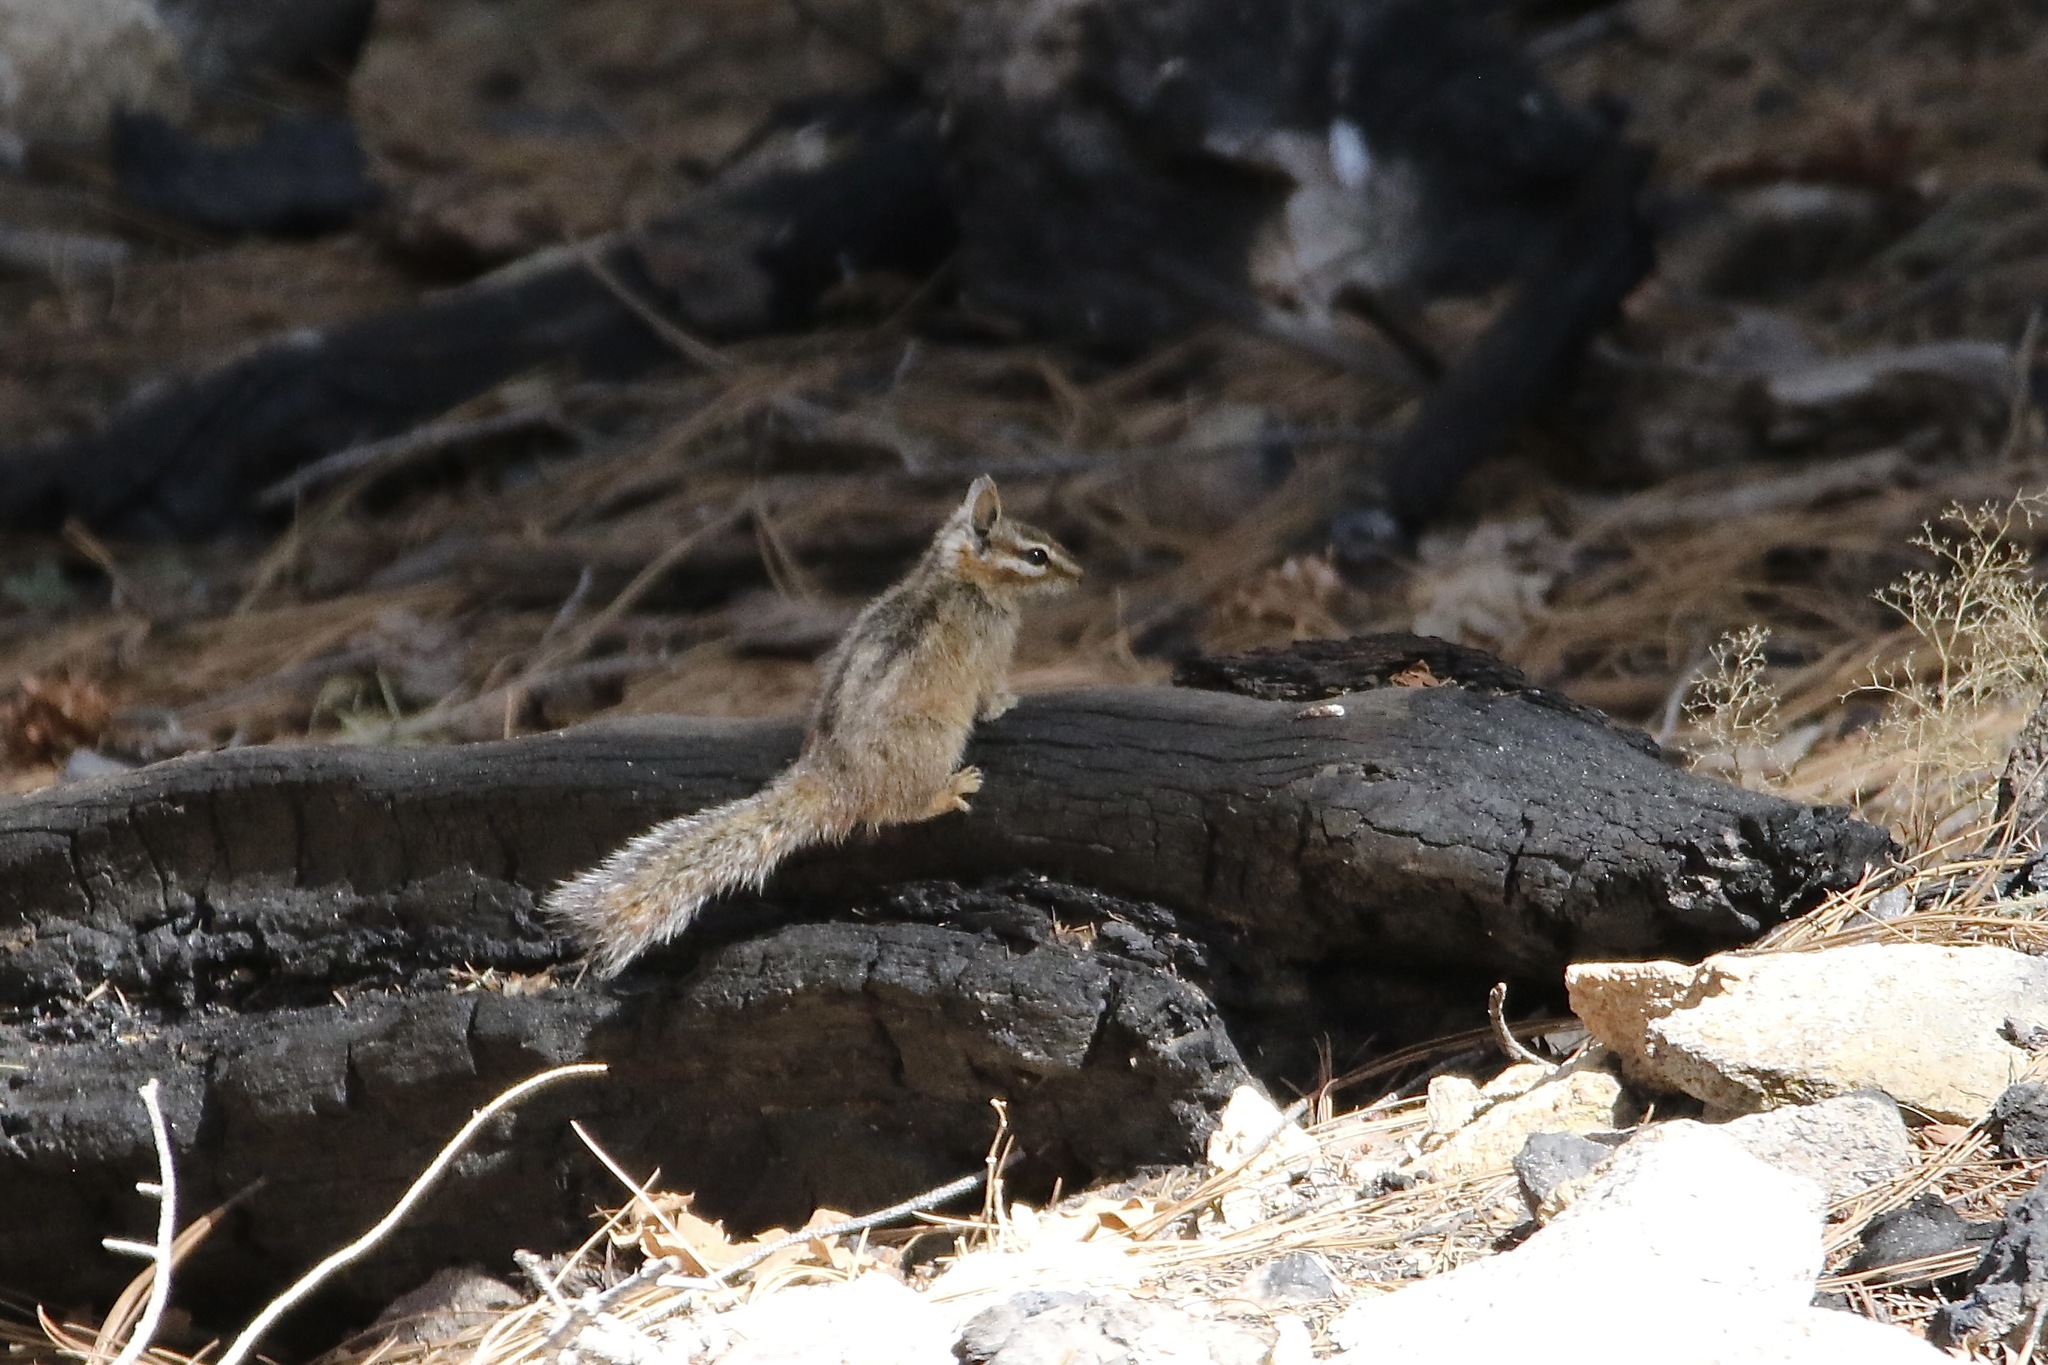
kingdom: Animalia
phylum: Chordata
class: Mammalia
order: Rodentia
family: Sciuridae
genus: Tamias
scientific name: Tamias dorsalis
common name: Cliff chipmunk
